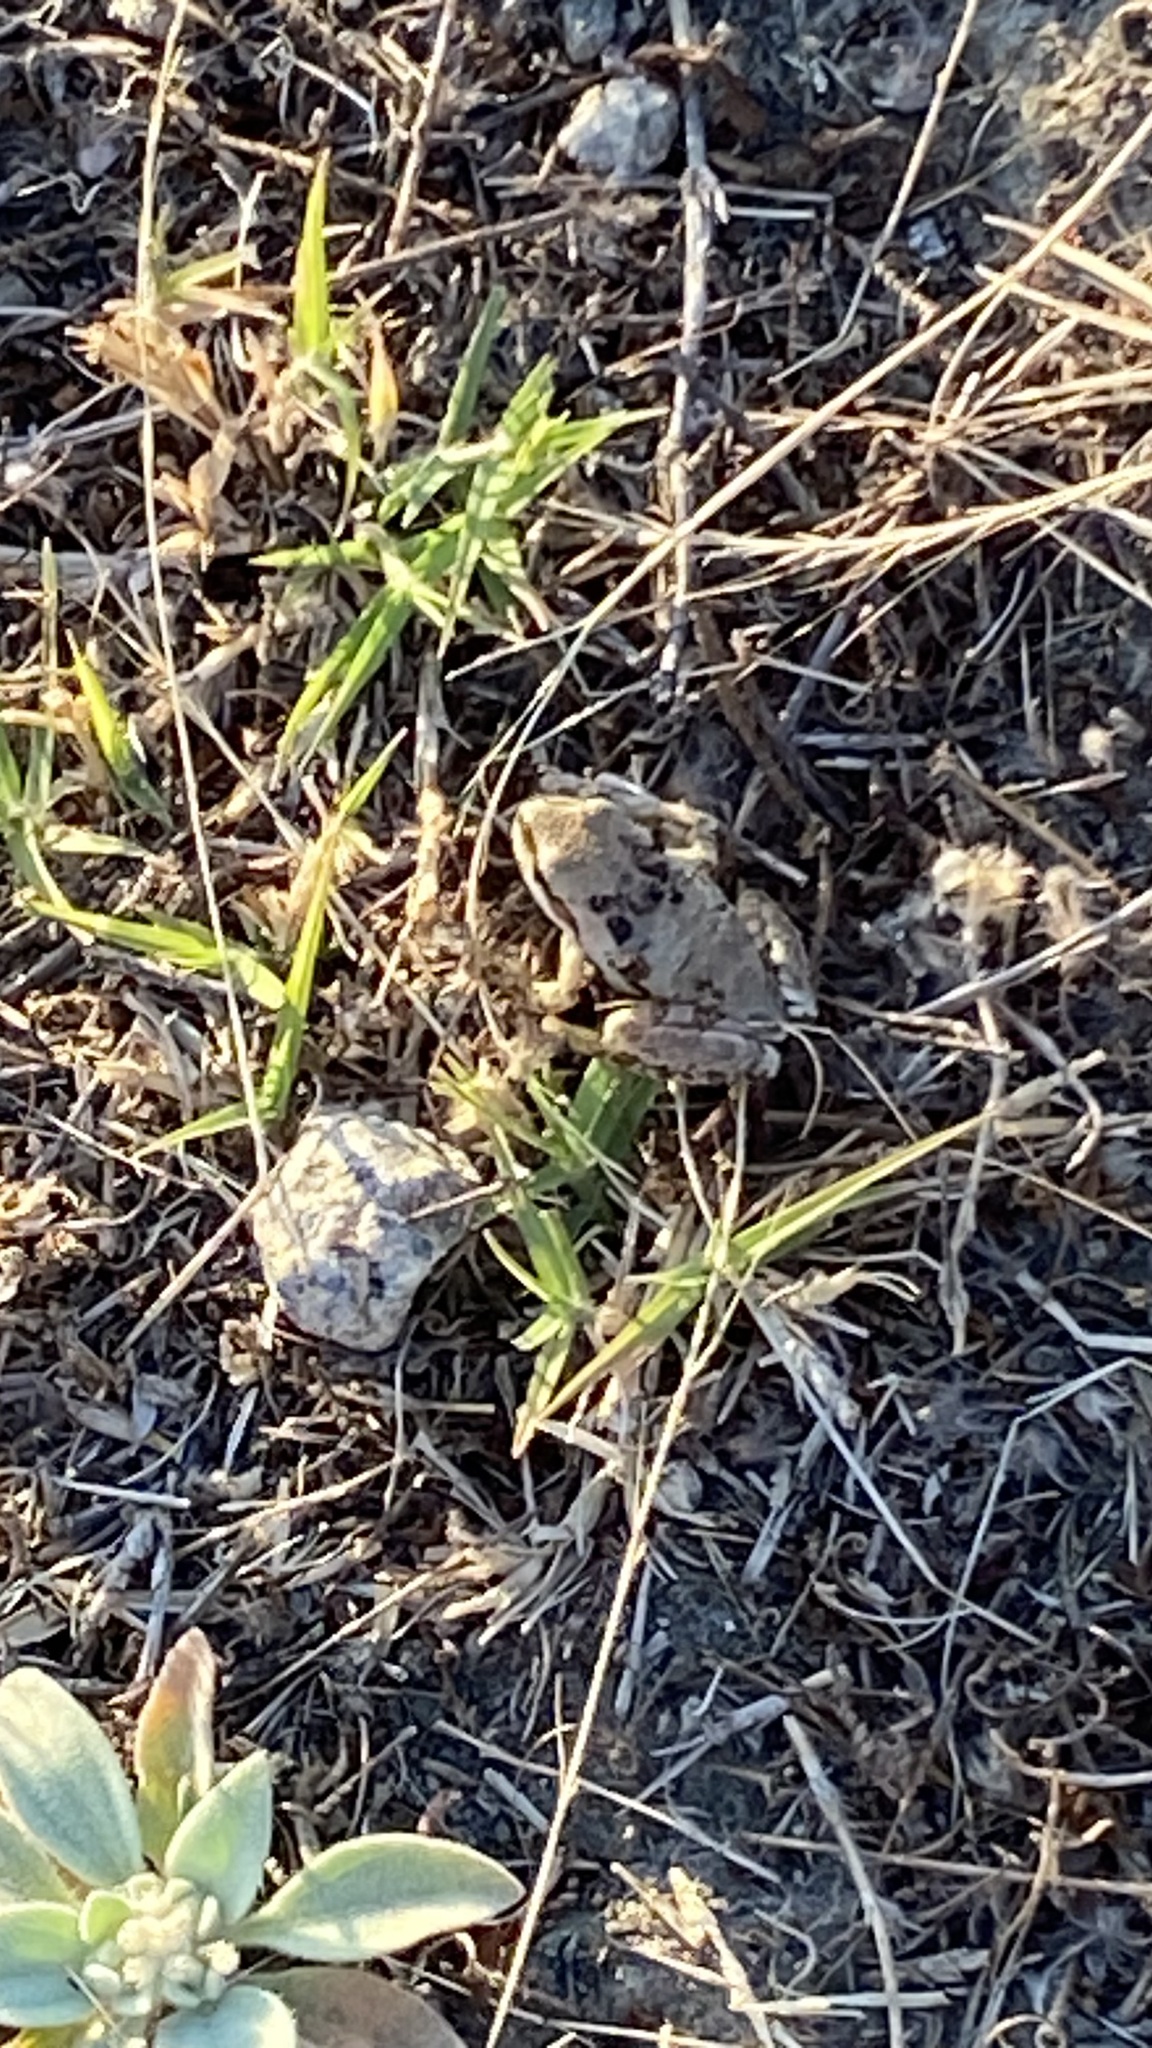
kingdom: Animalia
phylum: Chordata
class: Amphibia
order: Anura
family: Hylidae
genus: Pseudacris
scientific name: Pseudacris regilla
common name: Pacific chorus frog
